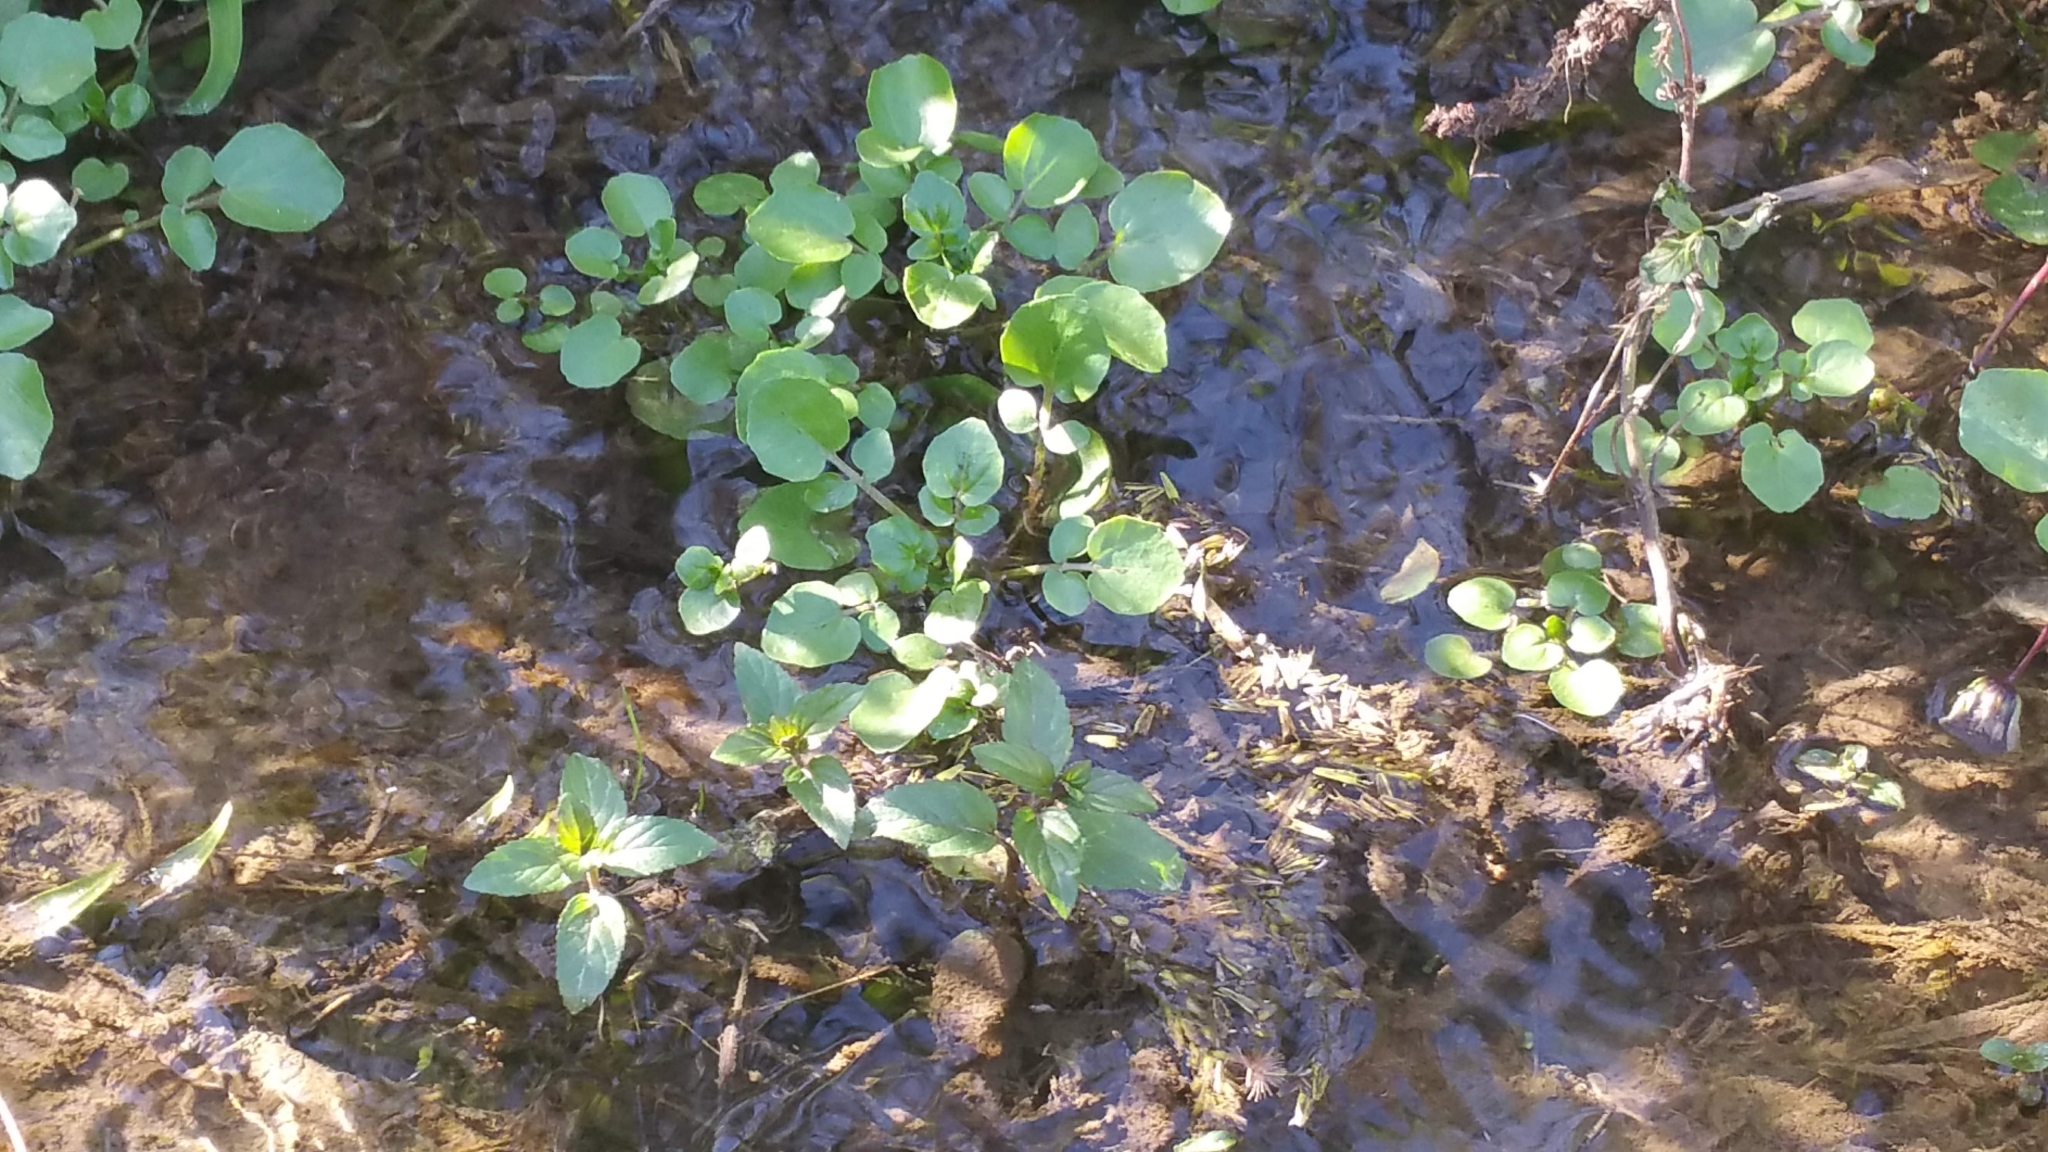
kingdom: Plantae
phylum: Tracheophyta
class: Magnoliopsida
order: Brassicales
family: Brassicaceae
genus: Nasturtium
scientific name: Nasturtium officinale
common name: Watercress
